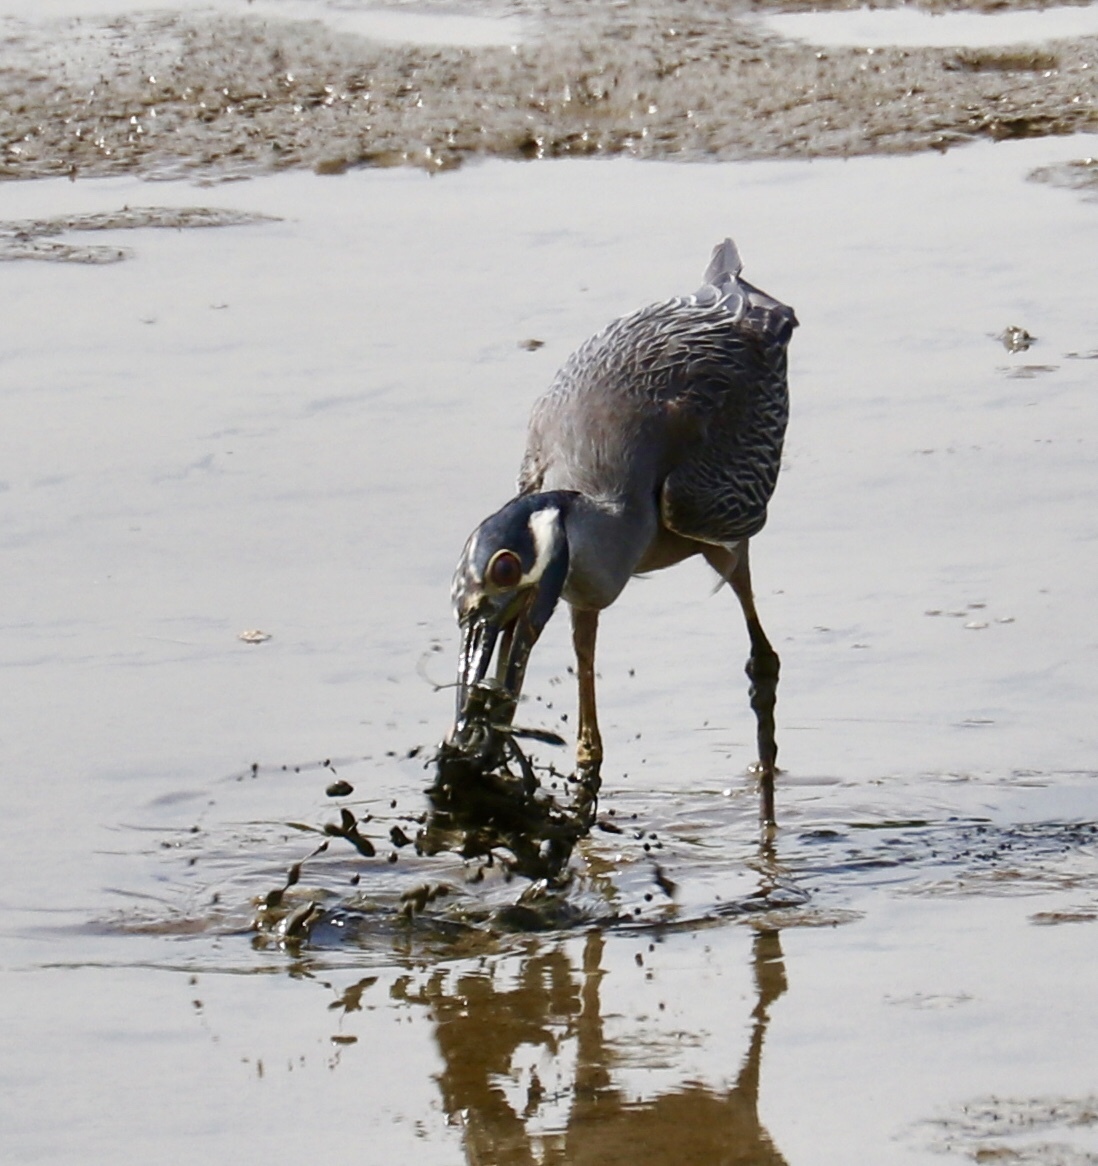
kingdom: Animalia
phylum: Chordata
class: Aves
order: Pelecaniformes
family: Ardeidae
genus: Nyctanassa
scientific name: Nyctanassa violacea
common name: Yellow-crowned night heron
